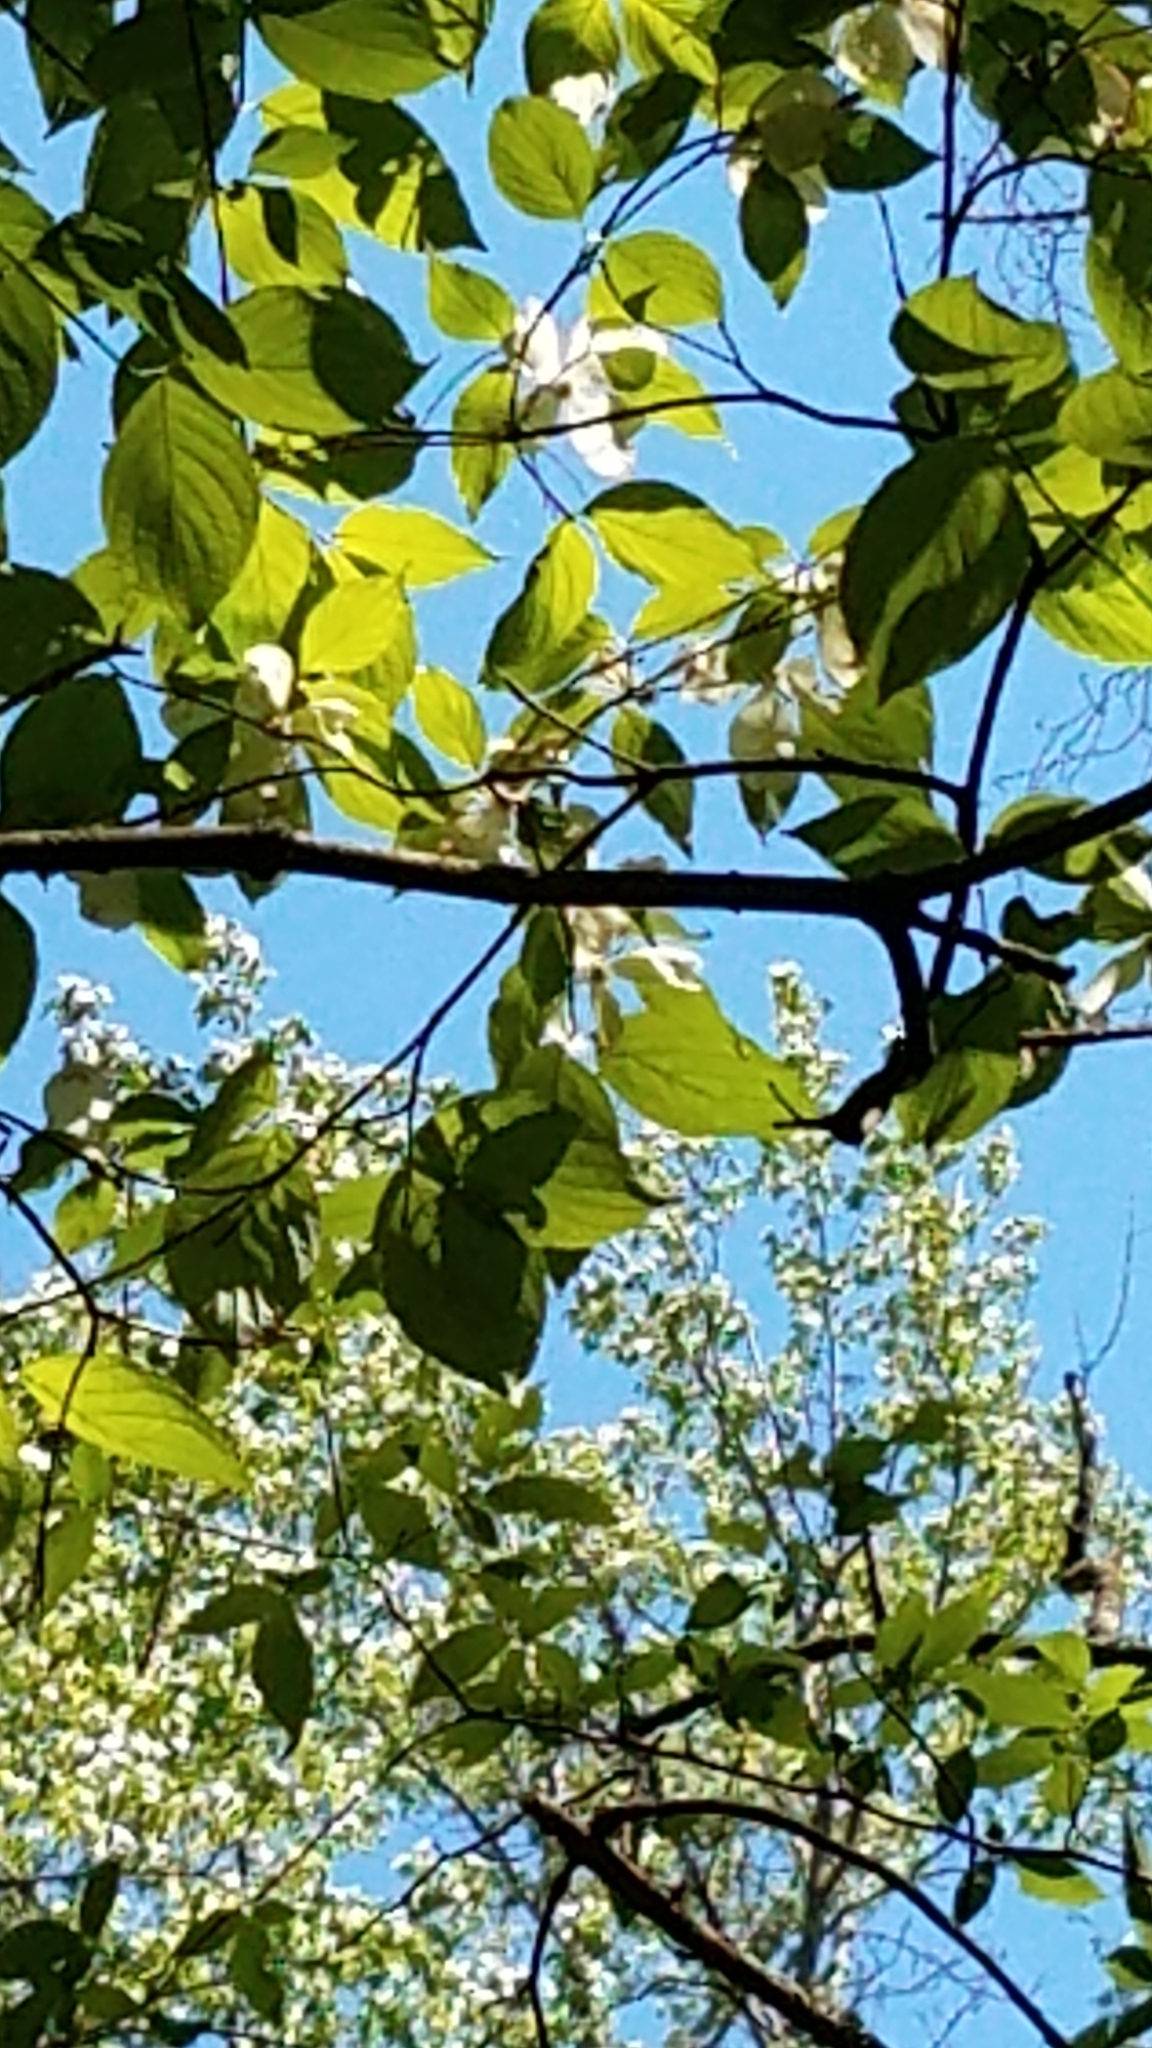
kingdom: Plantae
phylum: Tracheophyta
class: Magnoliopsida
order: Cornales
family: Cornaceae
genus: Cornus
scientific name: Cornus florida
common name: Flowering dogwood
